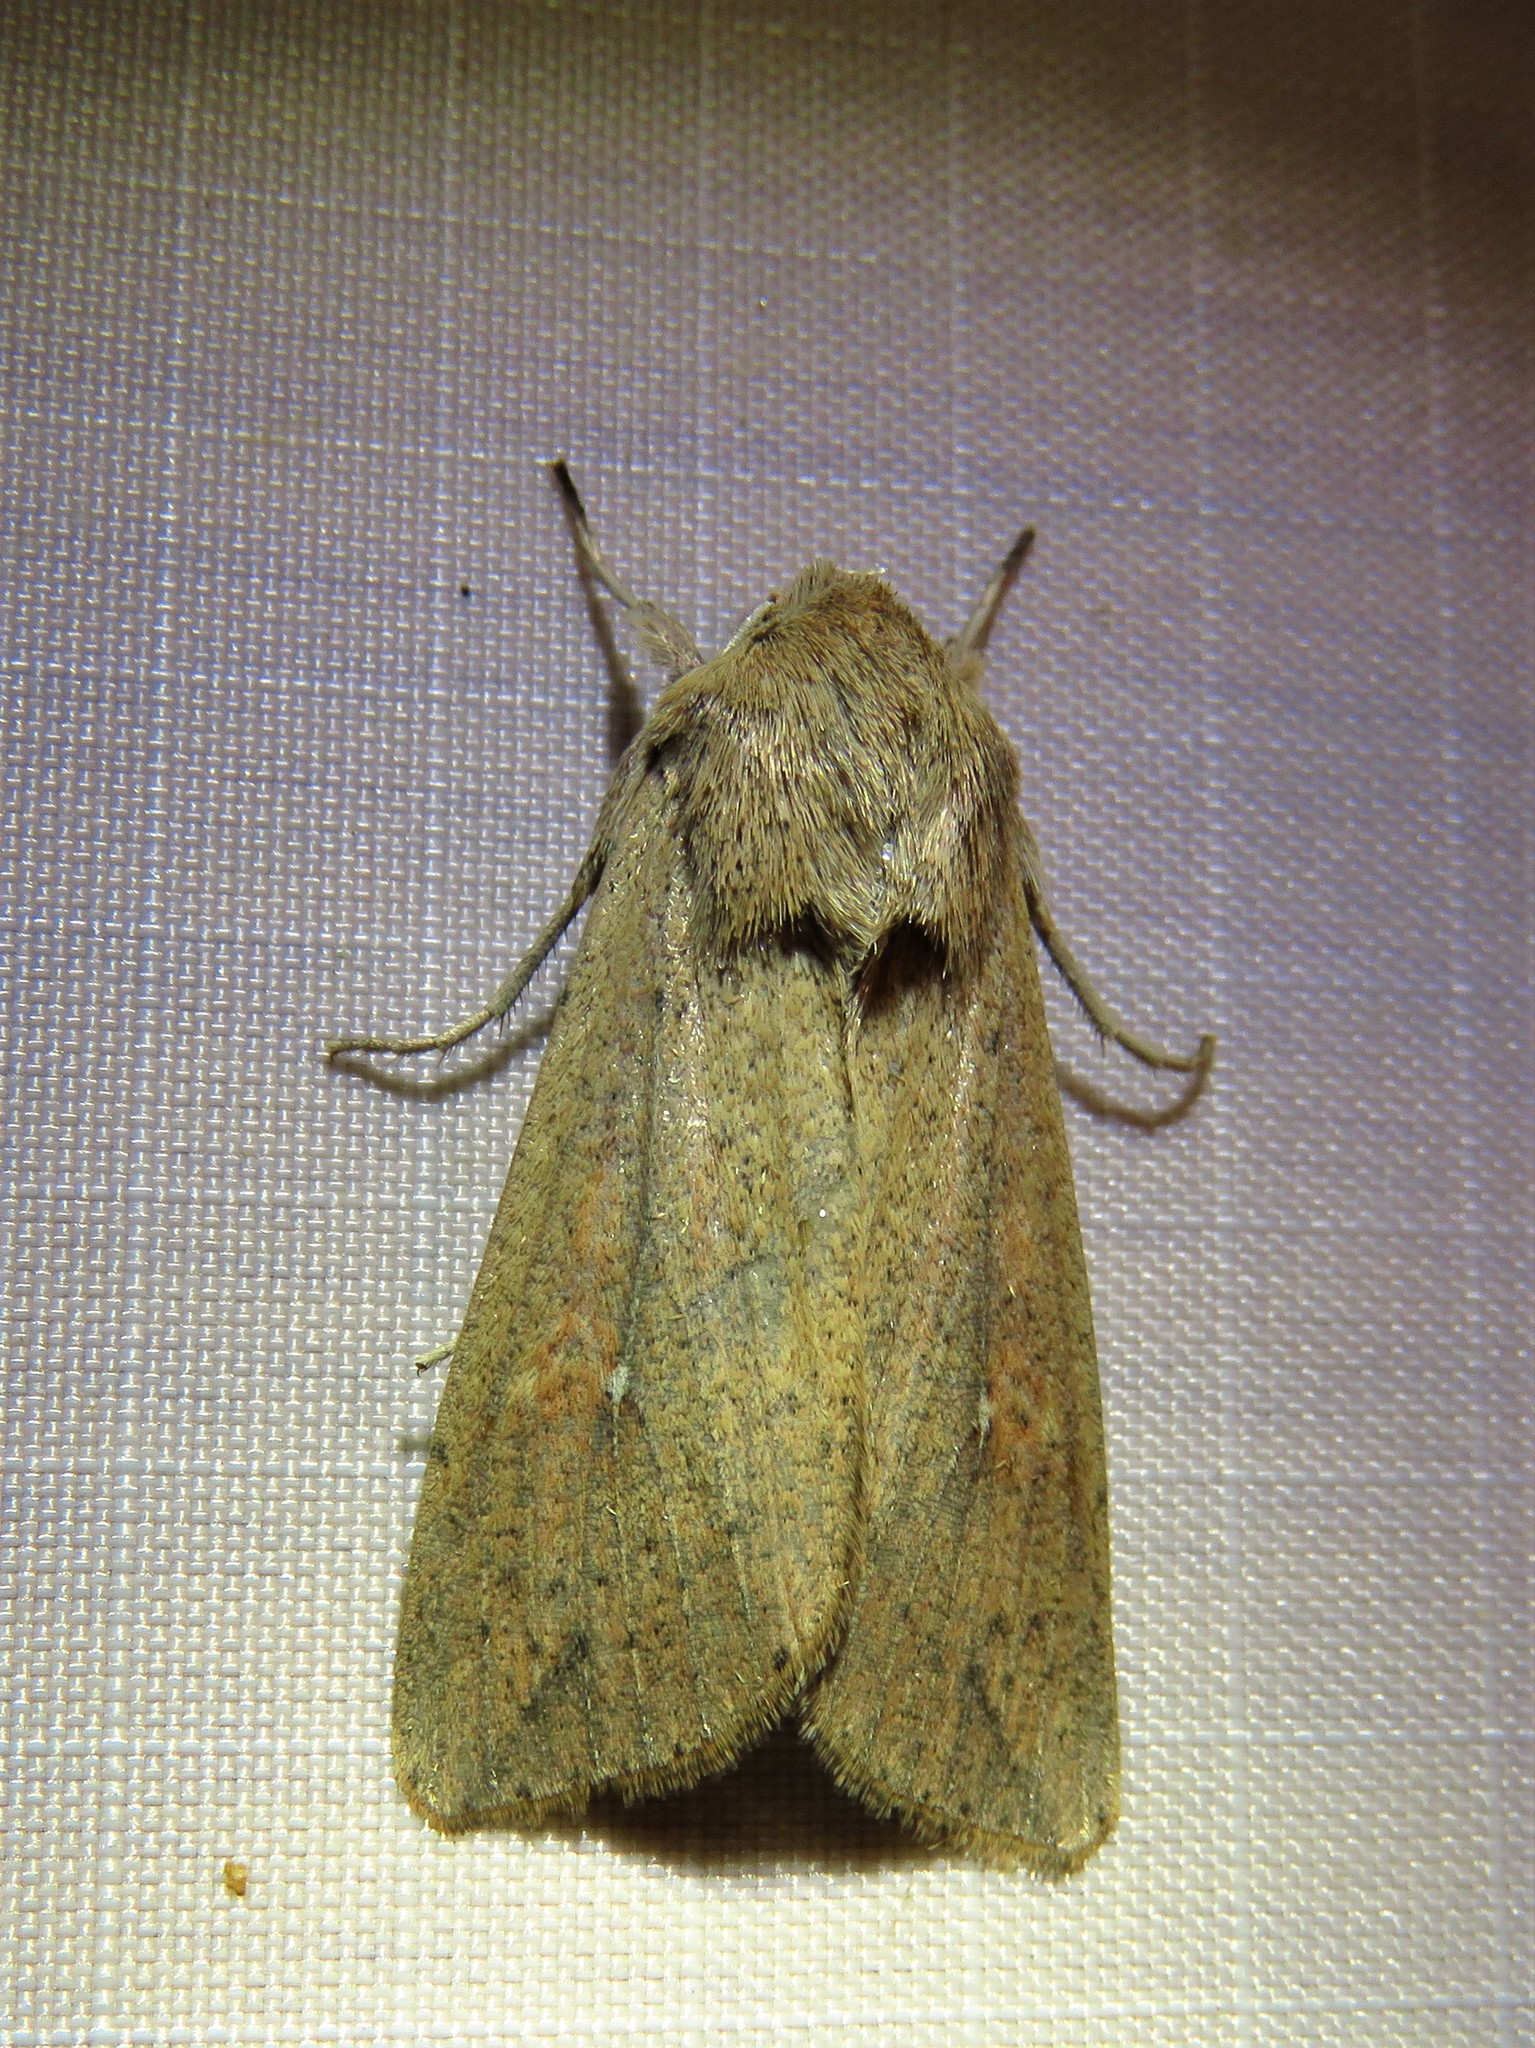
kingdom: Animalia
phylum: Arthropoda
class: Insecta
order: Lepidoptera
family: Noctuidae
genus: Mythimna
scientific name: Mythimna unipuncta
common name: White-speck
